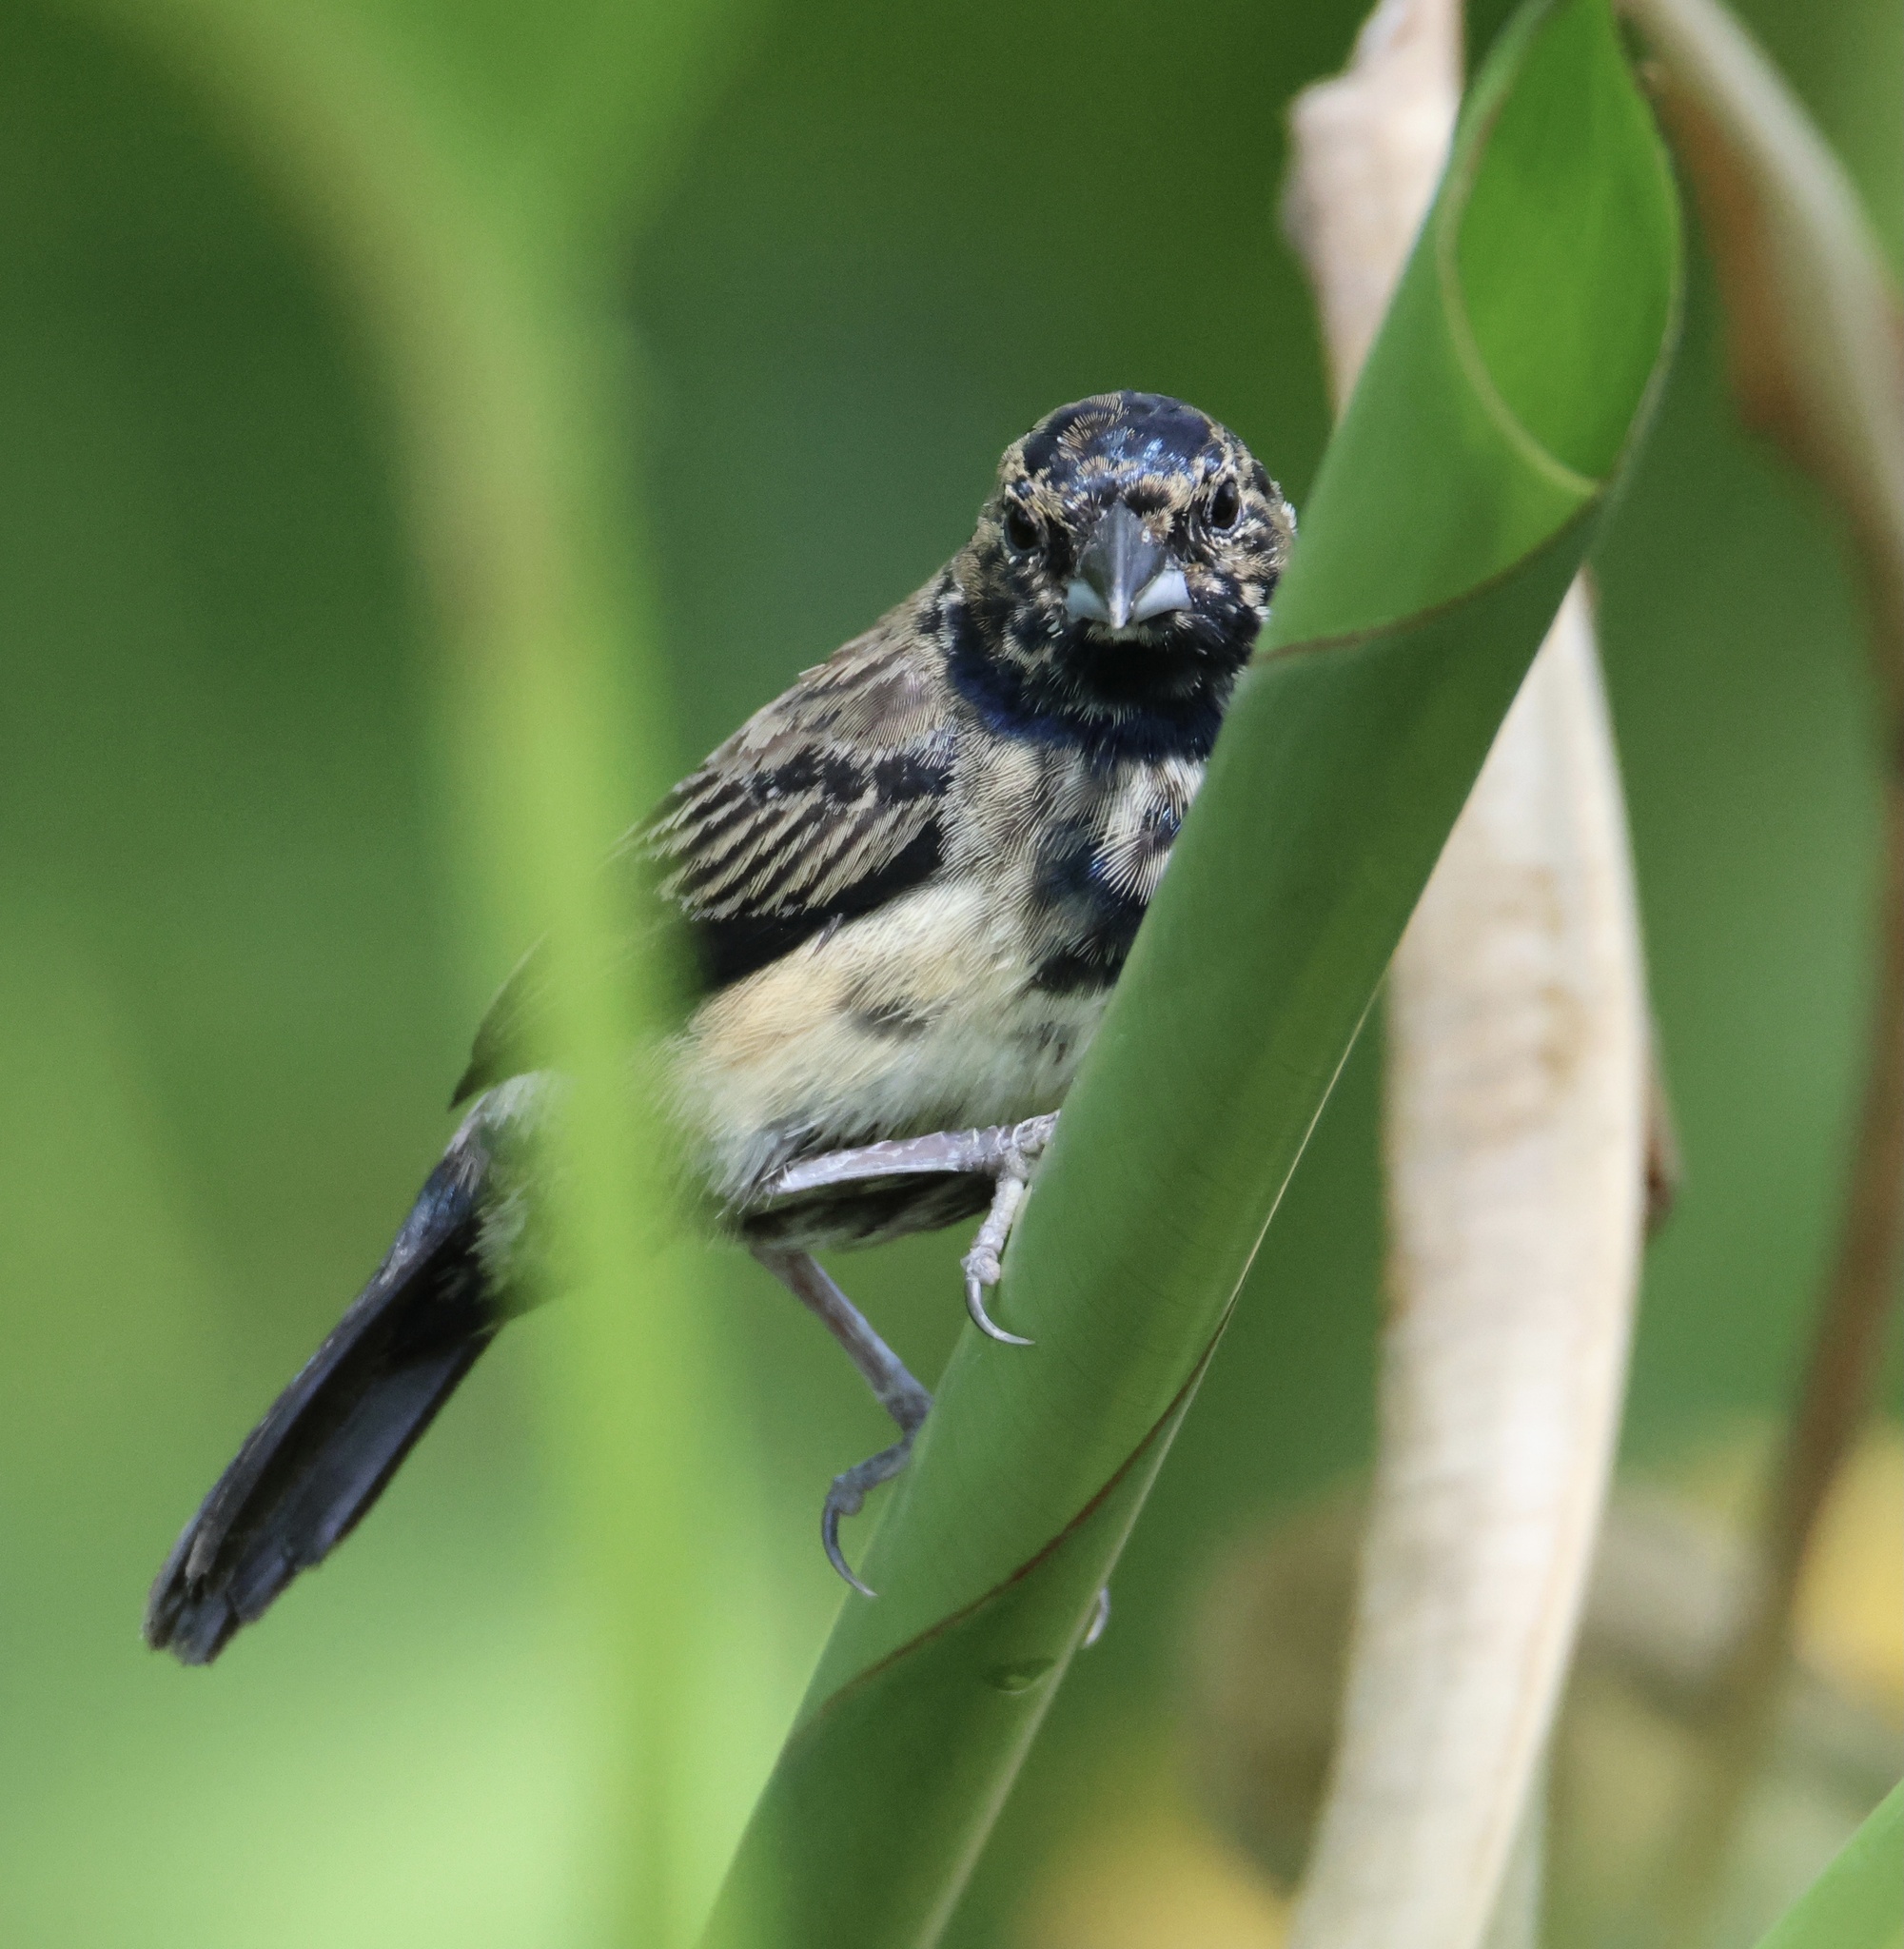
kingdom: Animalia
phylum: Chordata
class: Aves
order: Passeriformes
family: Thraupidae
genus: Volatinia
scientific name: Volatinia jacarina
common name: Blue-black grassquit
